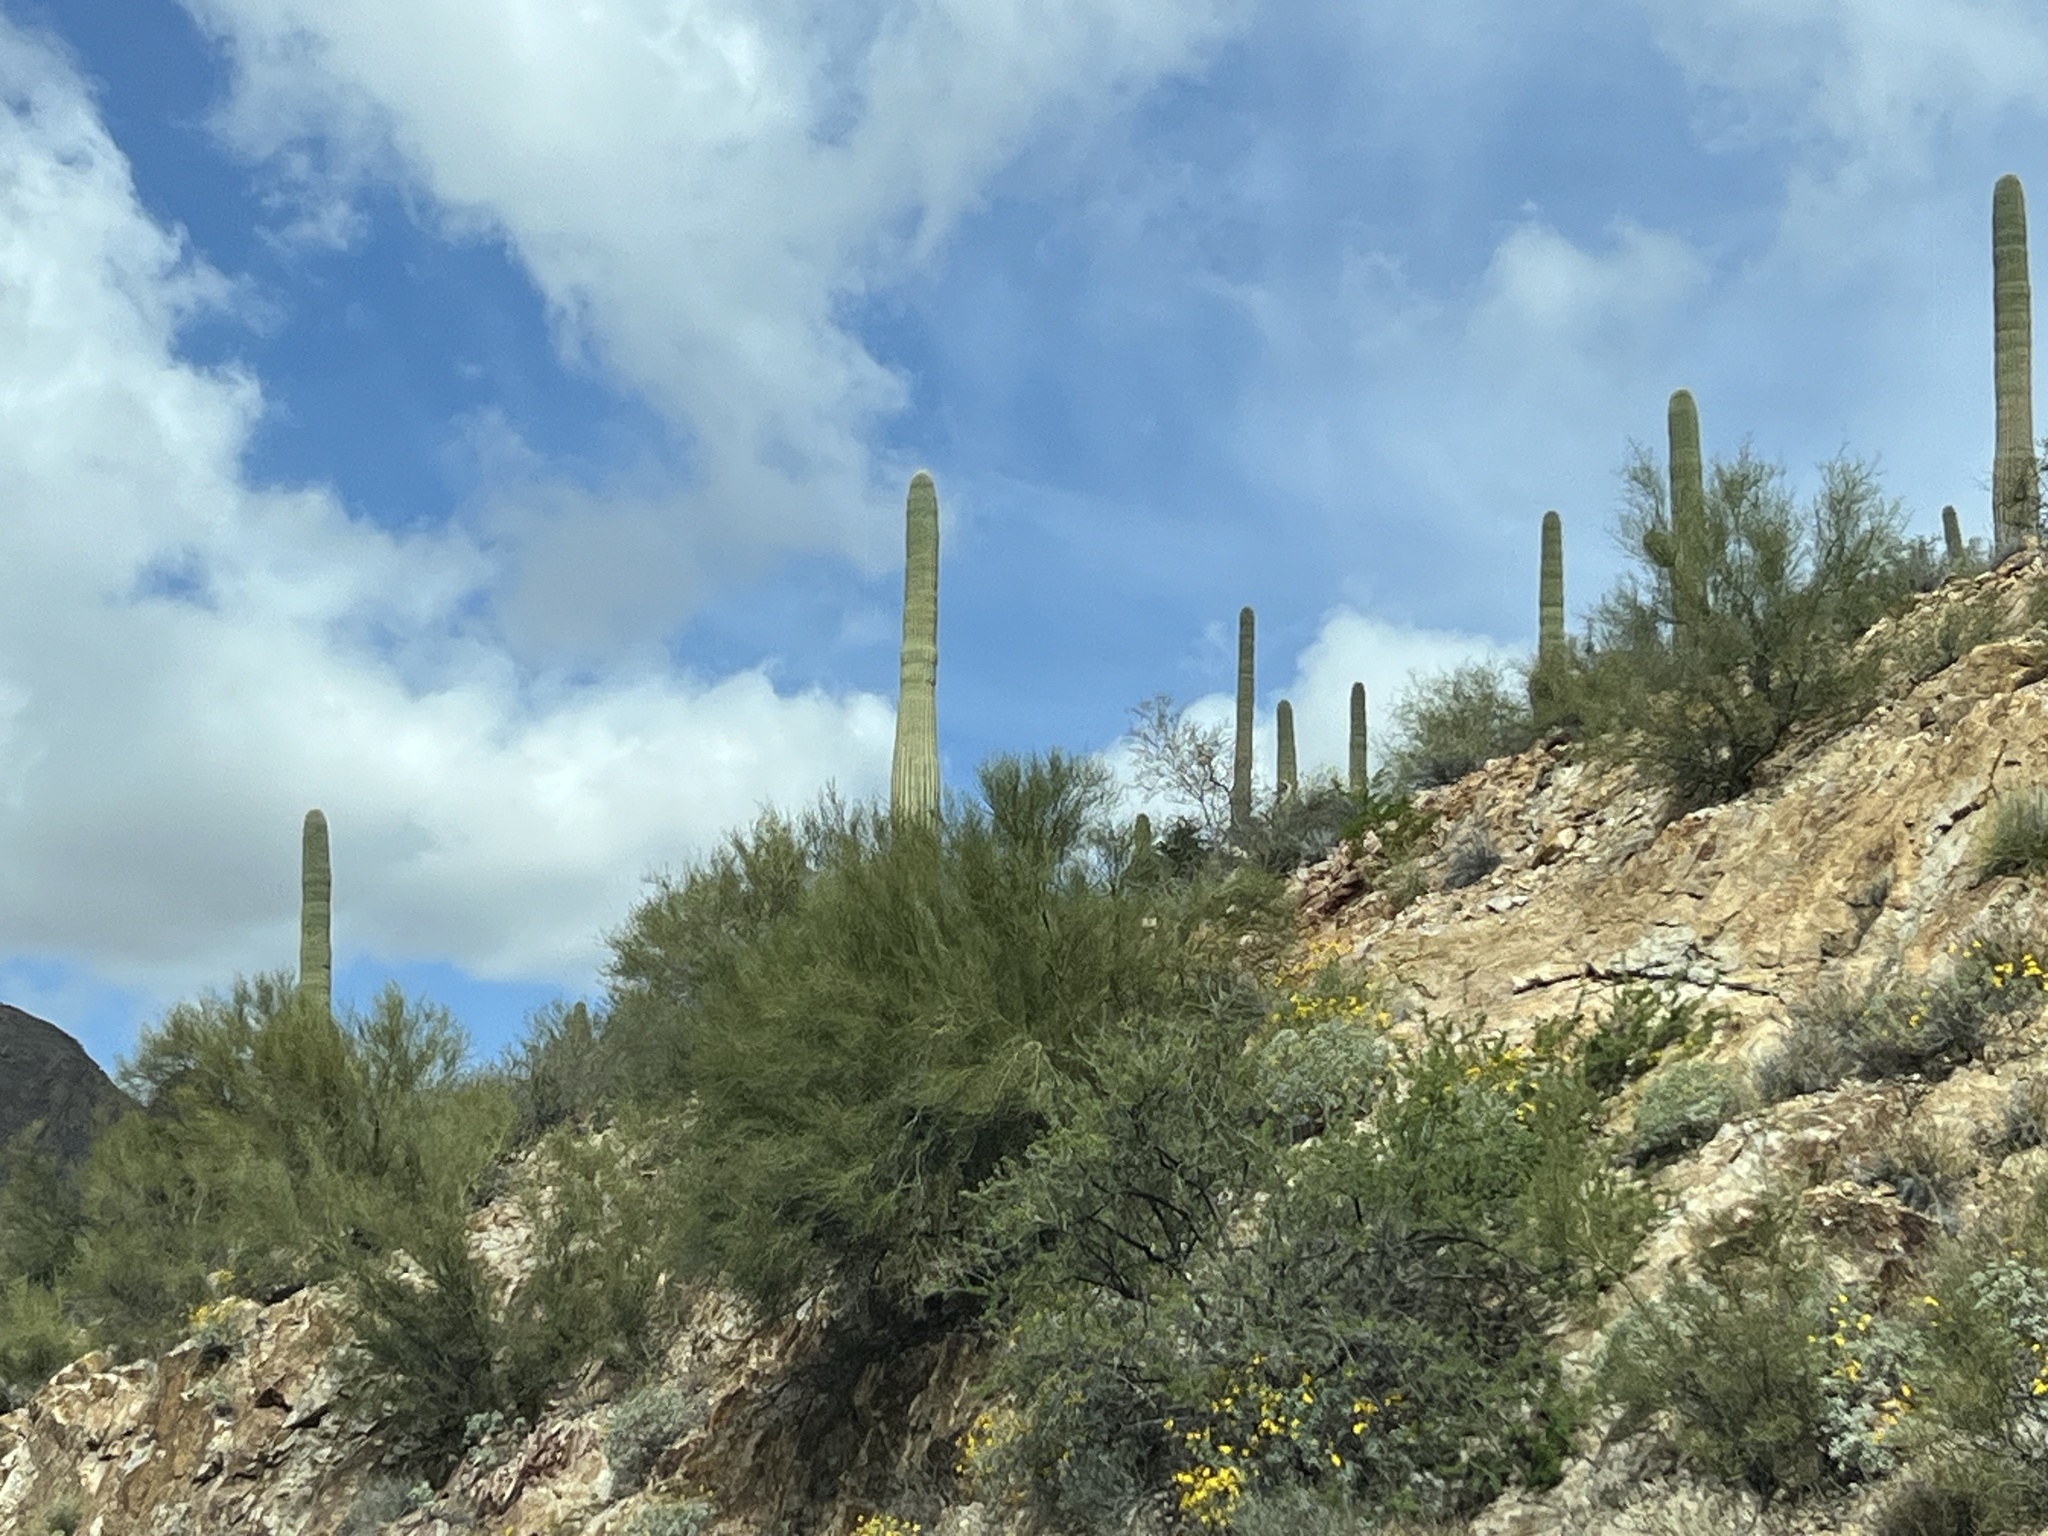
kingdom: Plantae
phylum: Tracheophyta
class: Magnoliopsida
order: Caryophyllales
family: Cactaceae
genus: Carnegiea
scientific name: Carnegiea gigantea
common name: Saguaro
